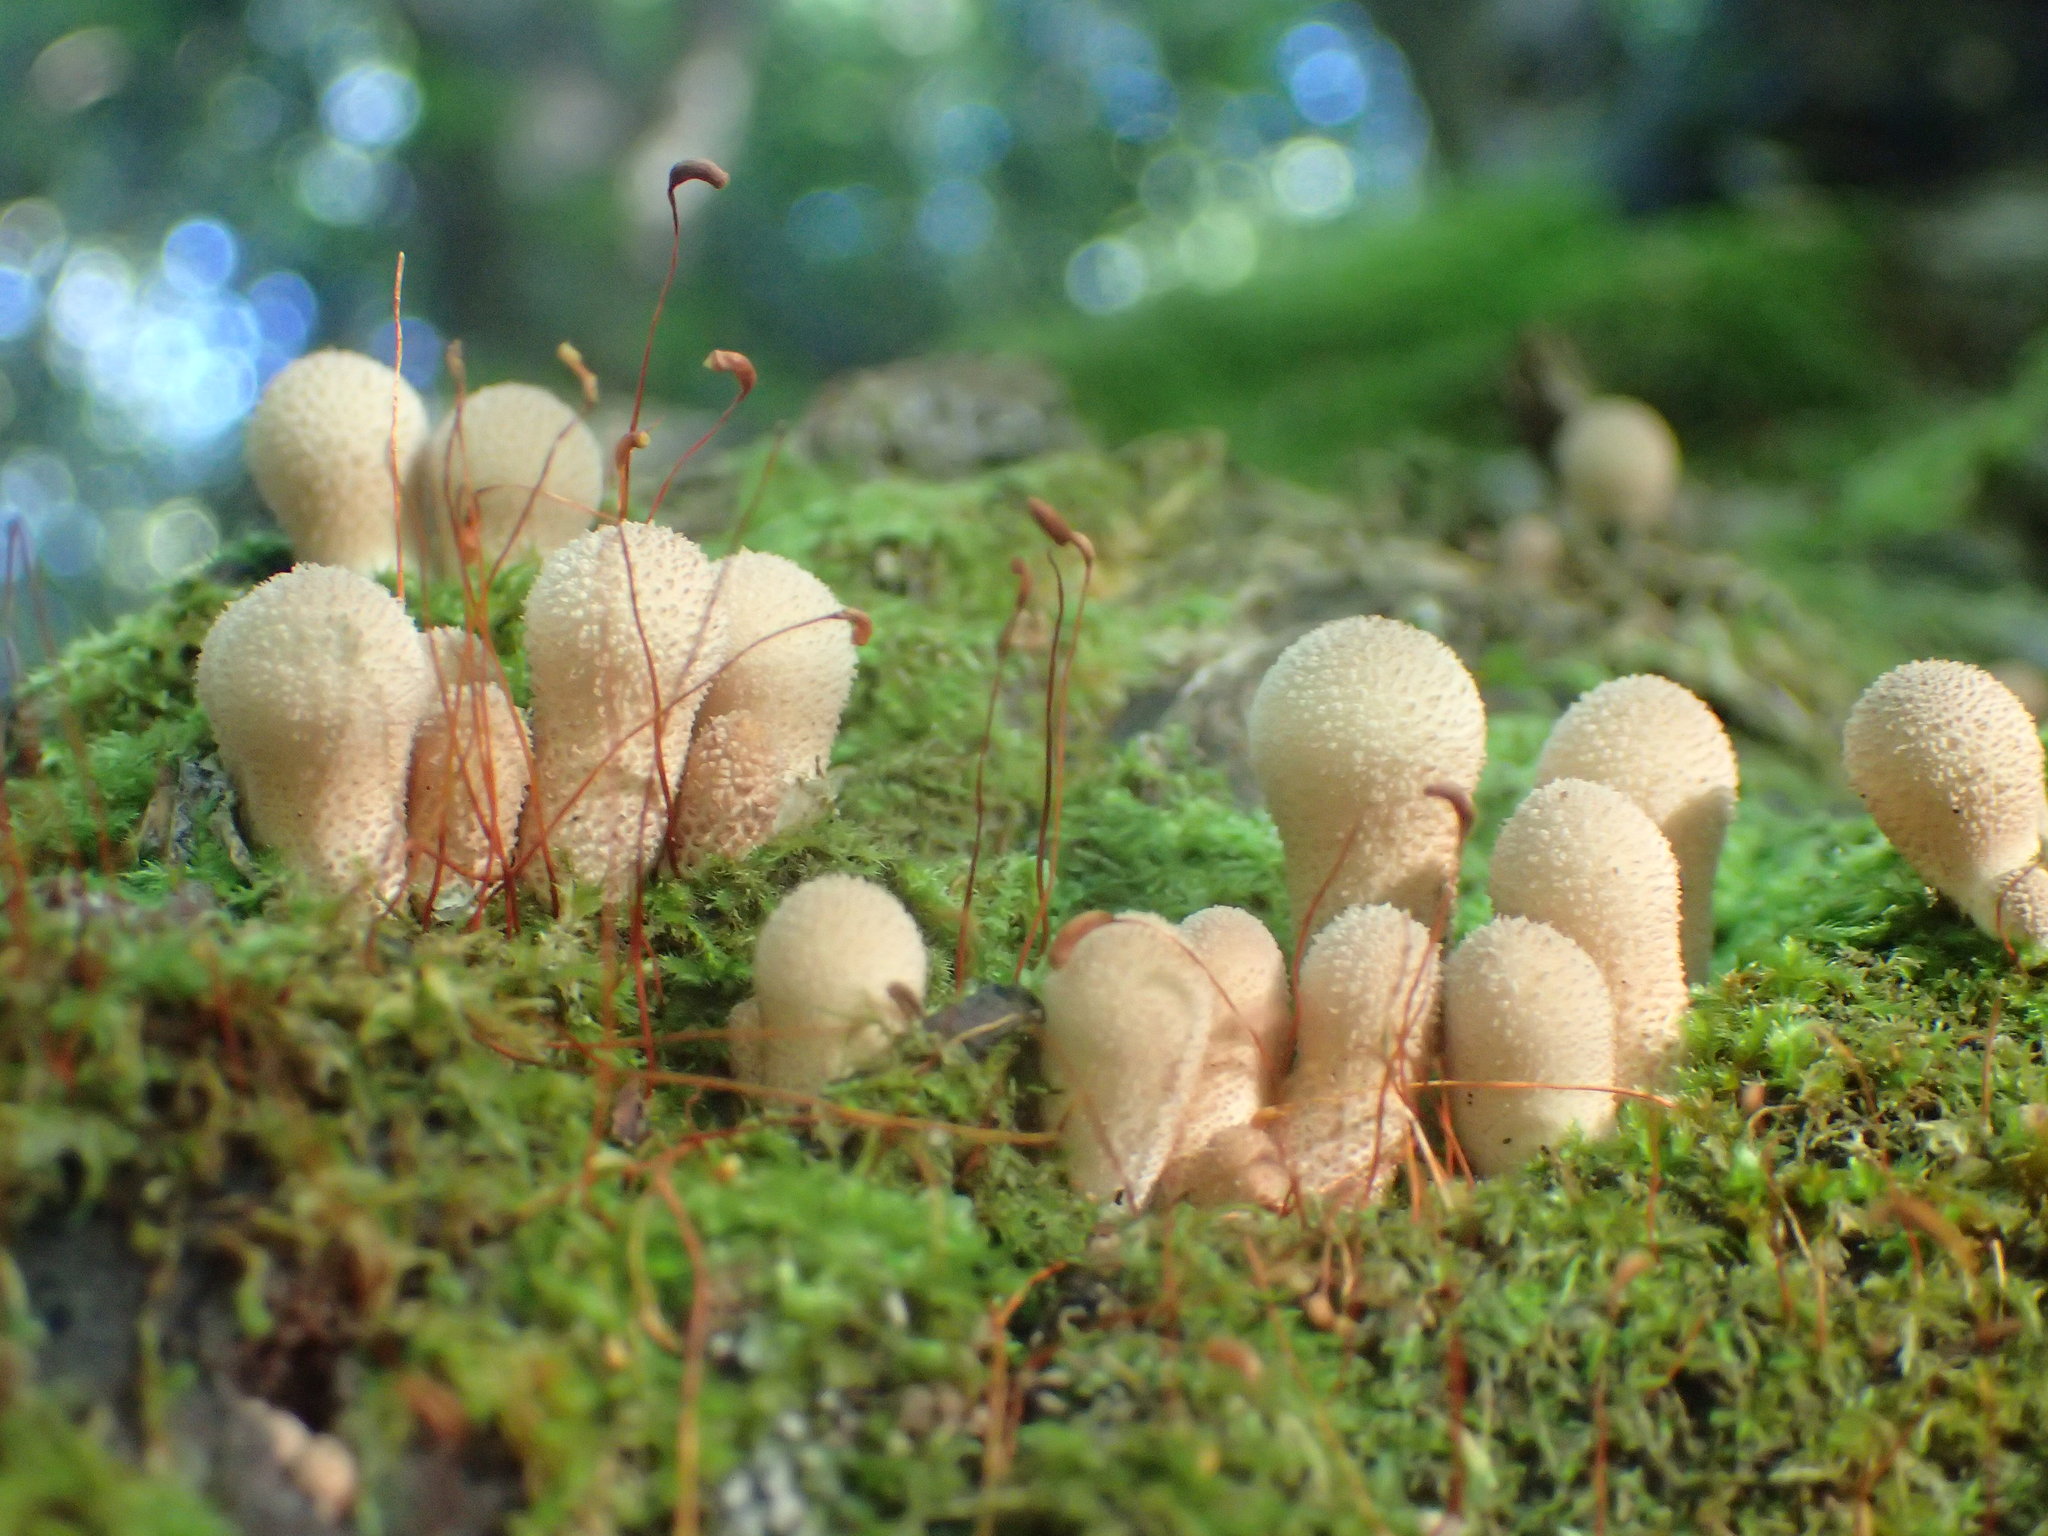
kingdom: Fungi
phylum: Basidiomycota
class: Agaricomycetes
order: Agaricales
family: Lycoperdaceae
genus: Apioperdon
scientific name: Apioperdon pyriforme
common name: Pear-shaped puffball
